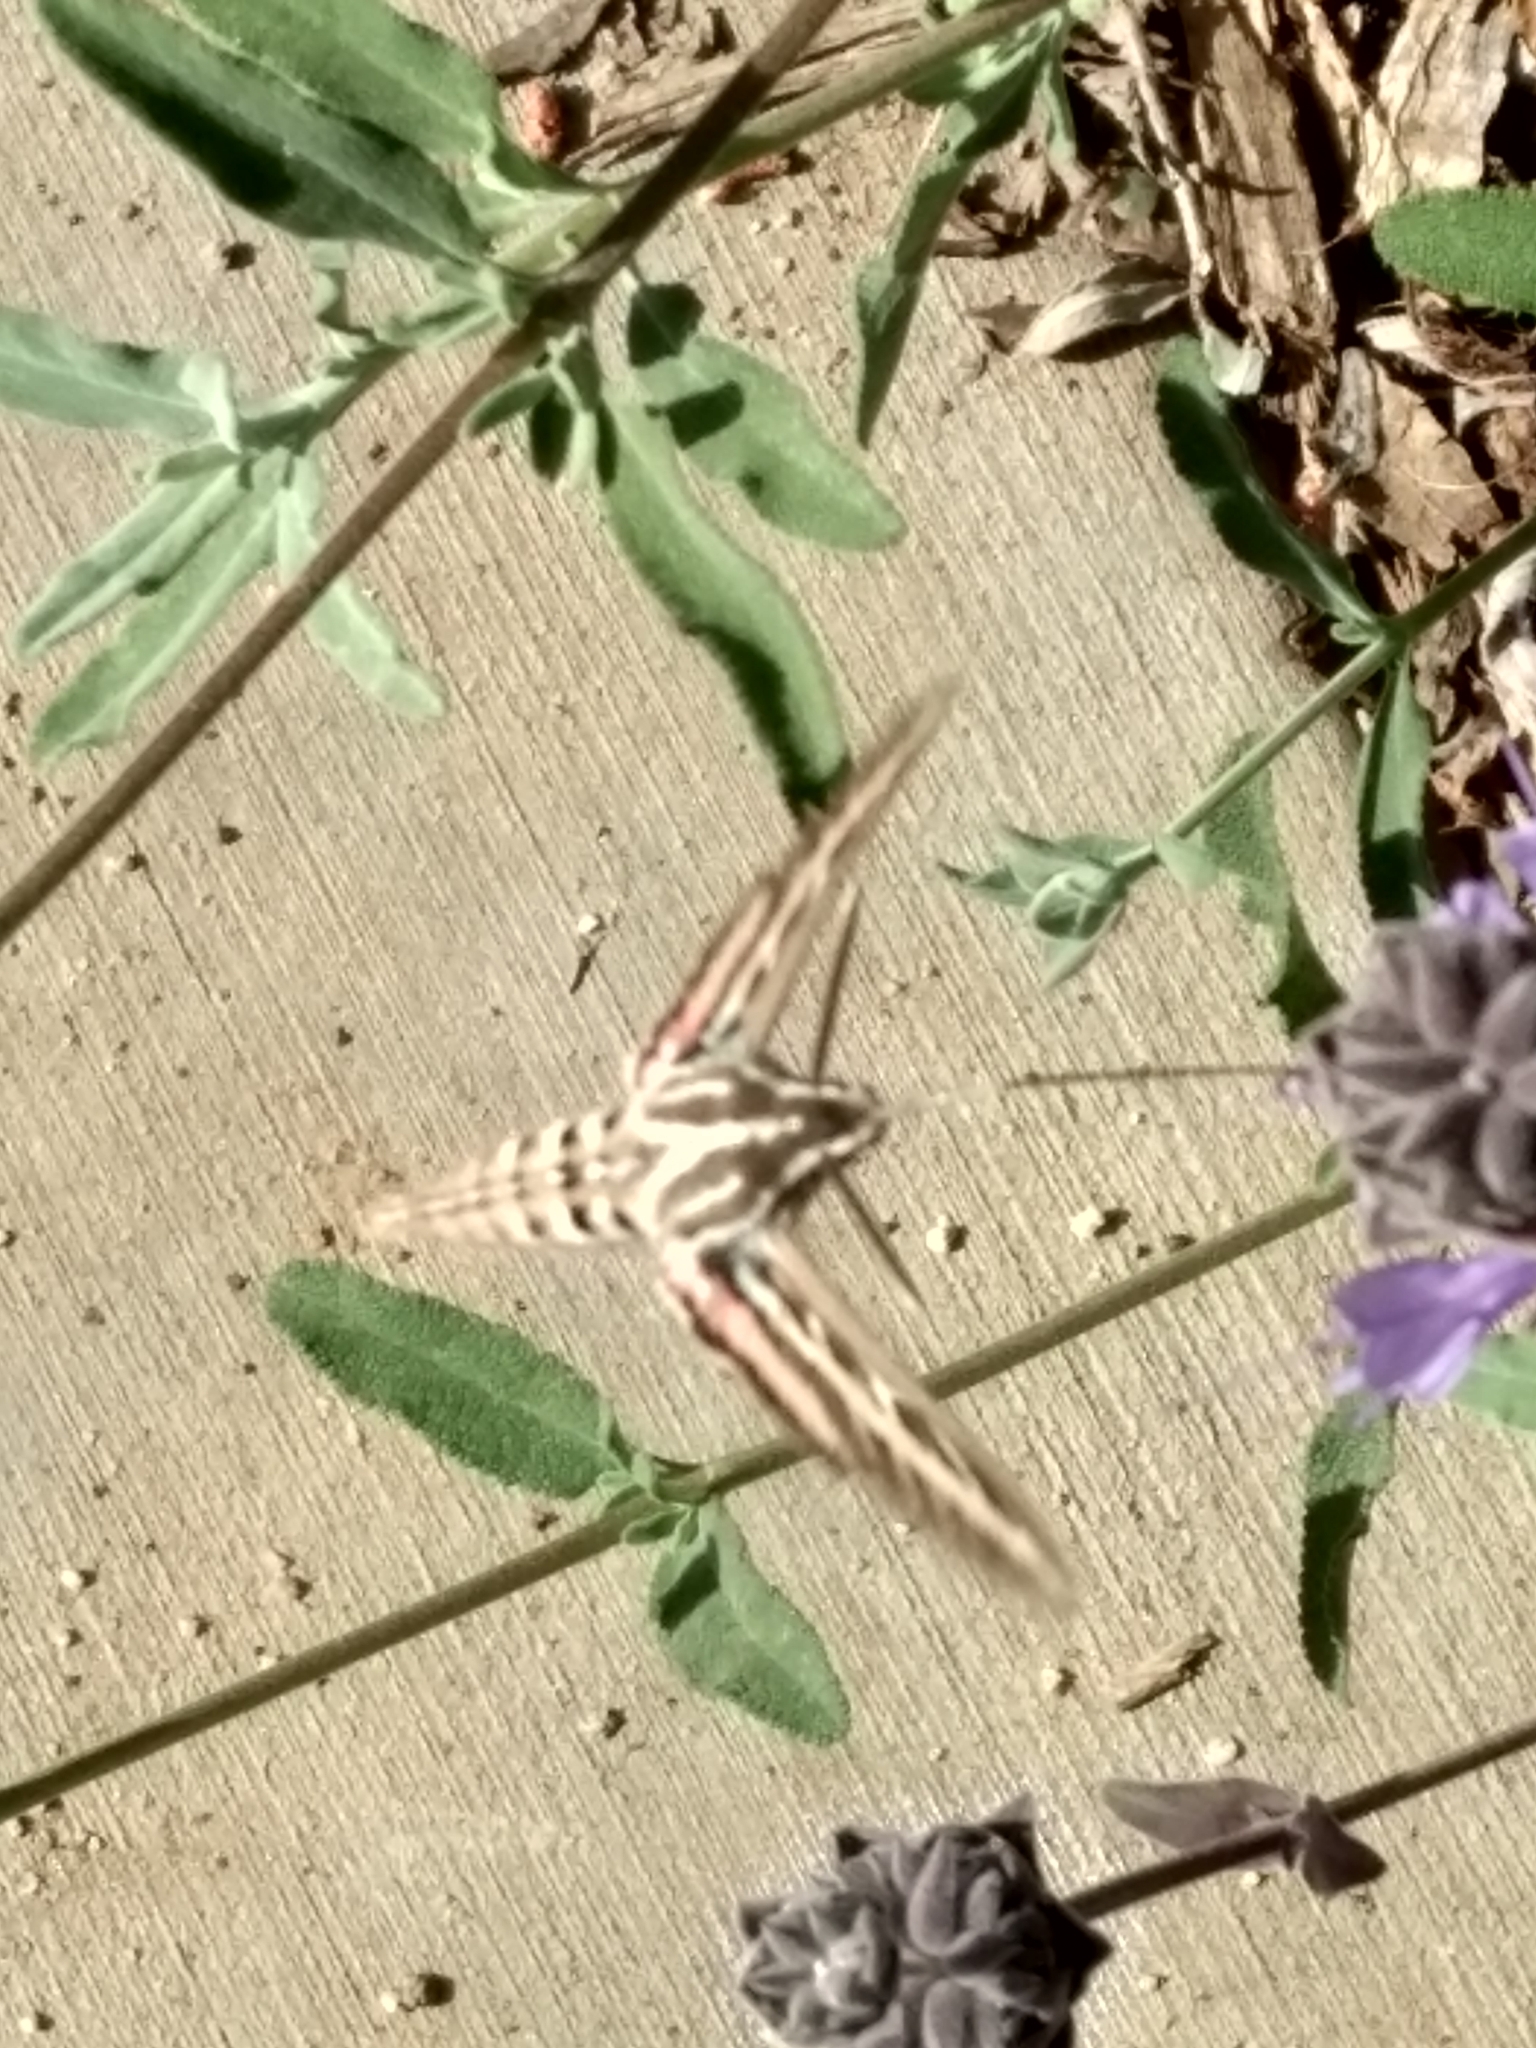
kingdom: Animalia
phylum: Arthropoda
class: Insecta
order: Lepidoptera
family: Sphingidae
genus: Hyles
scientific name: Hyles lineata
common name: White-lined sphinx
